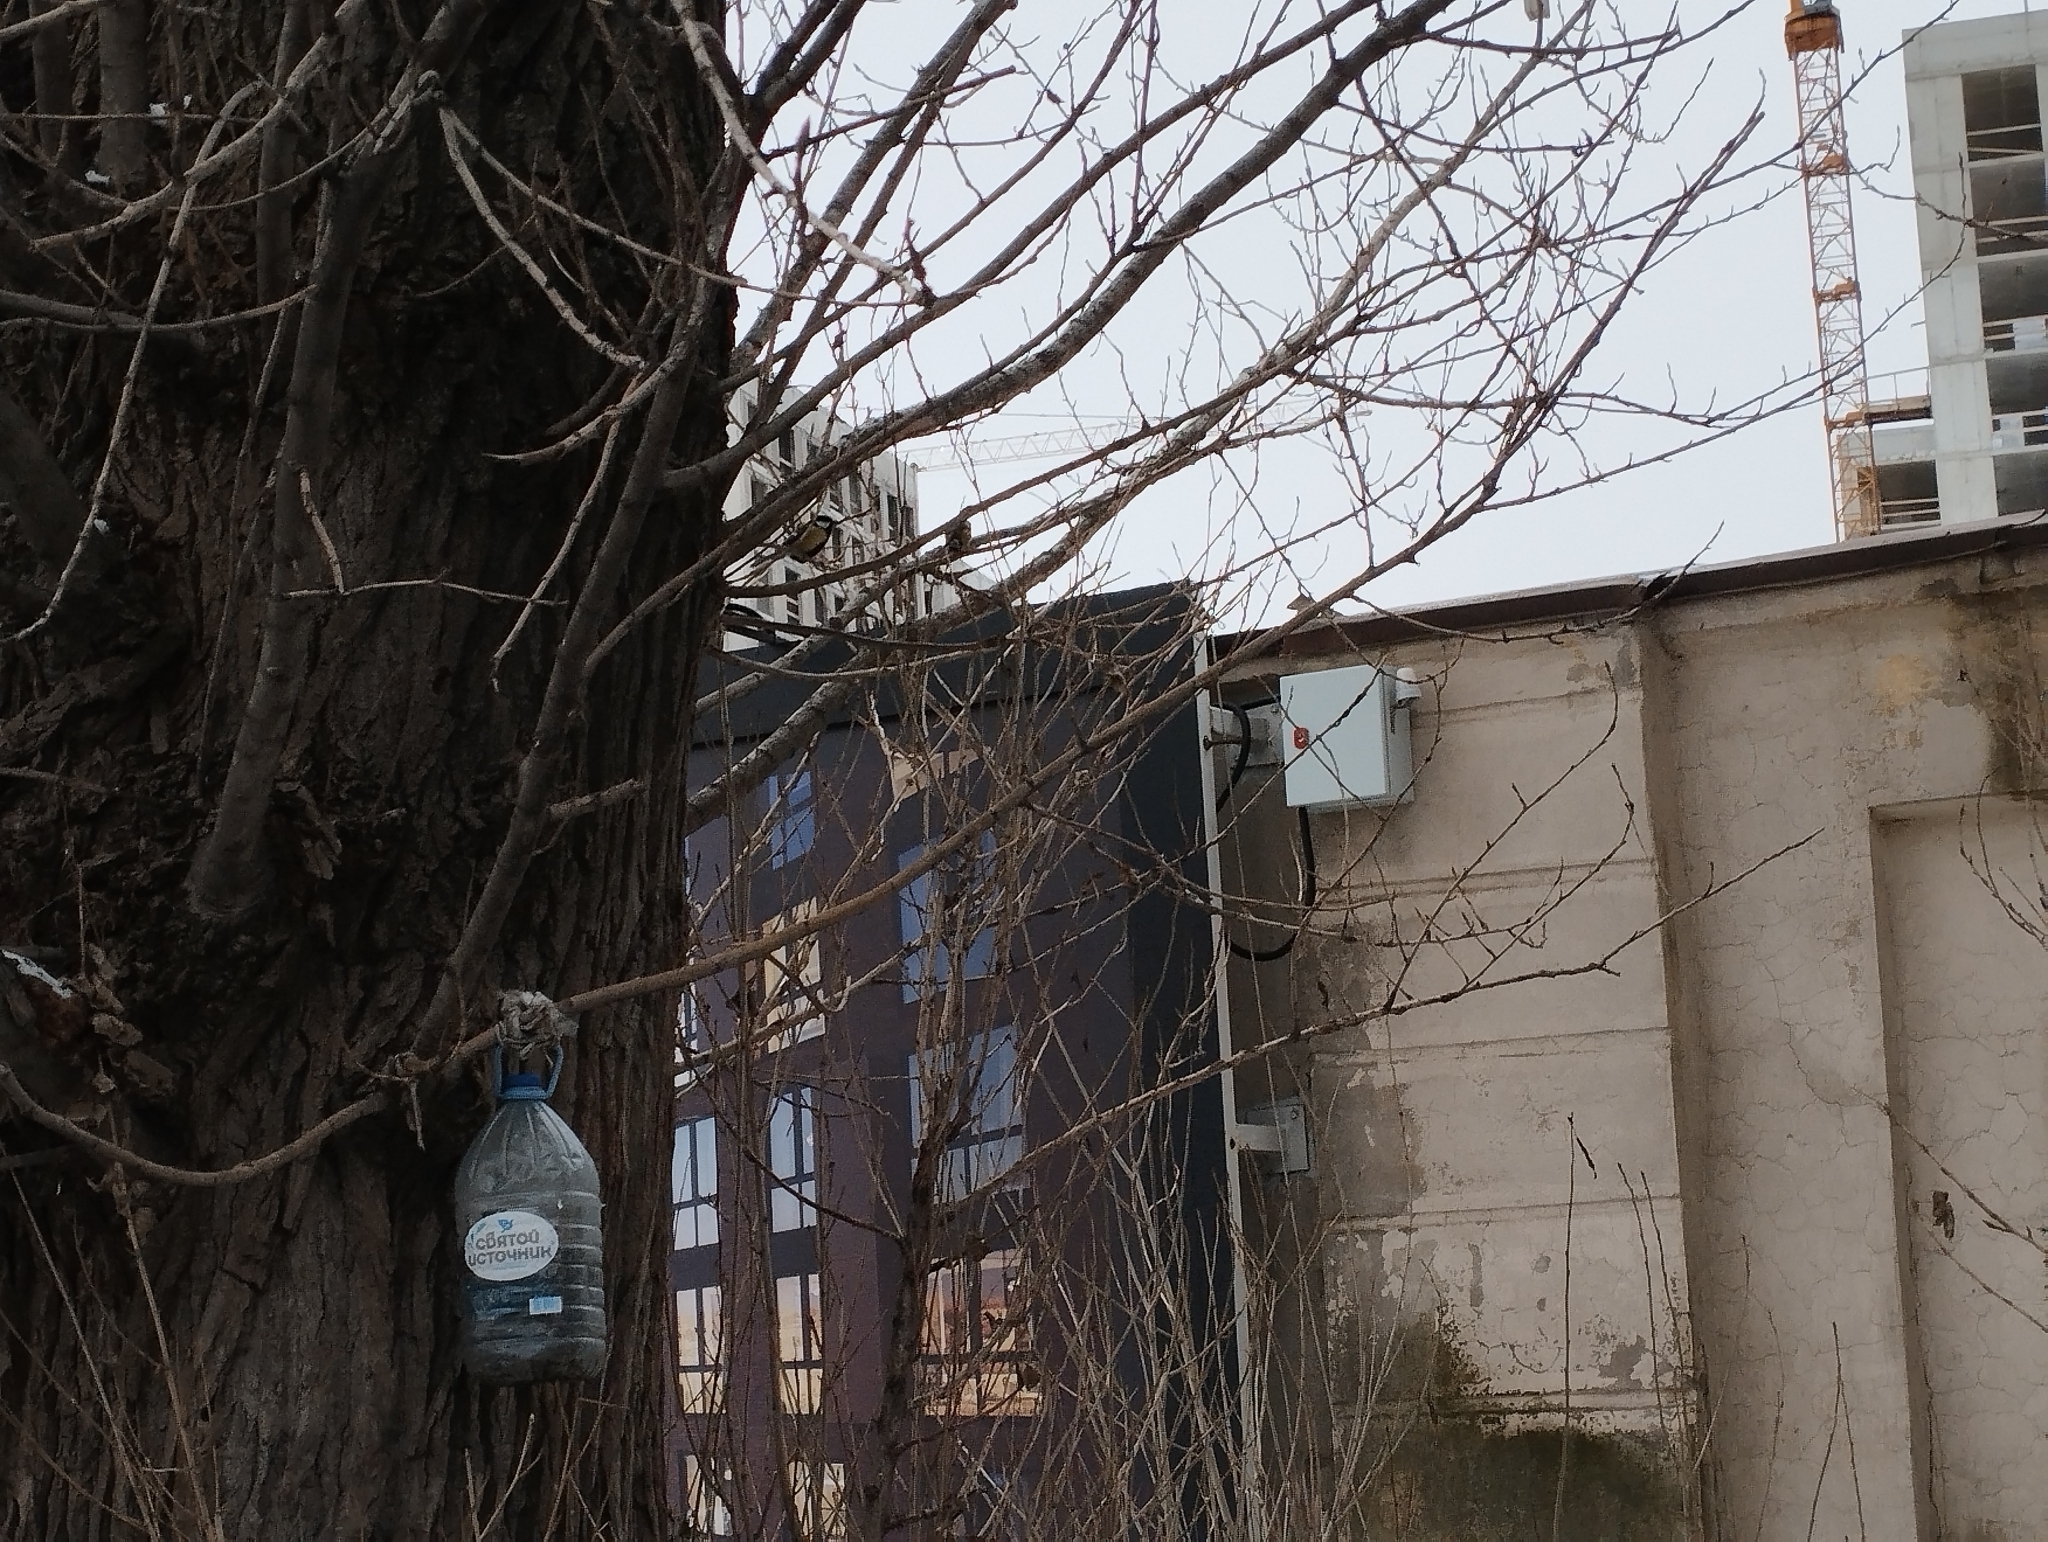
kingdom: Animalia
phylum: Chordata
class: Aves
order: Passeriformes
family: Paridae
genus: Parus
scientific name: Parus major
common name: Great tit
